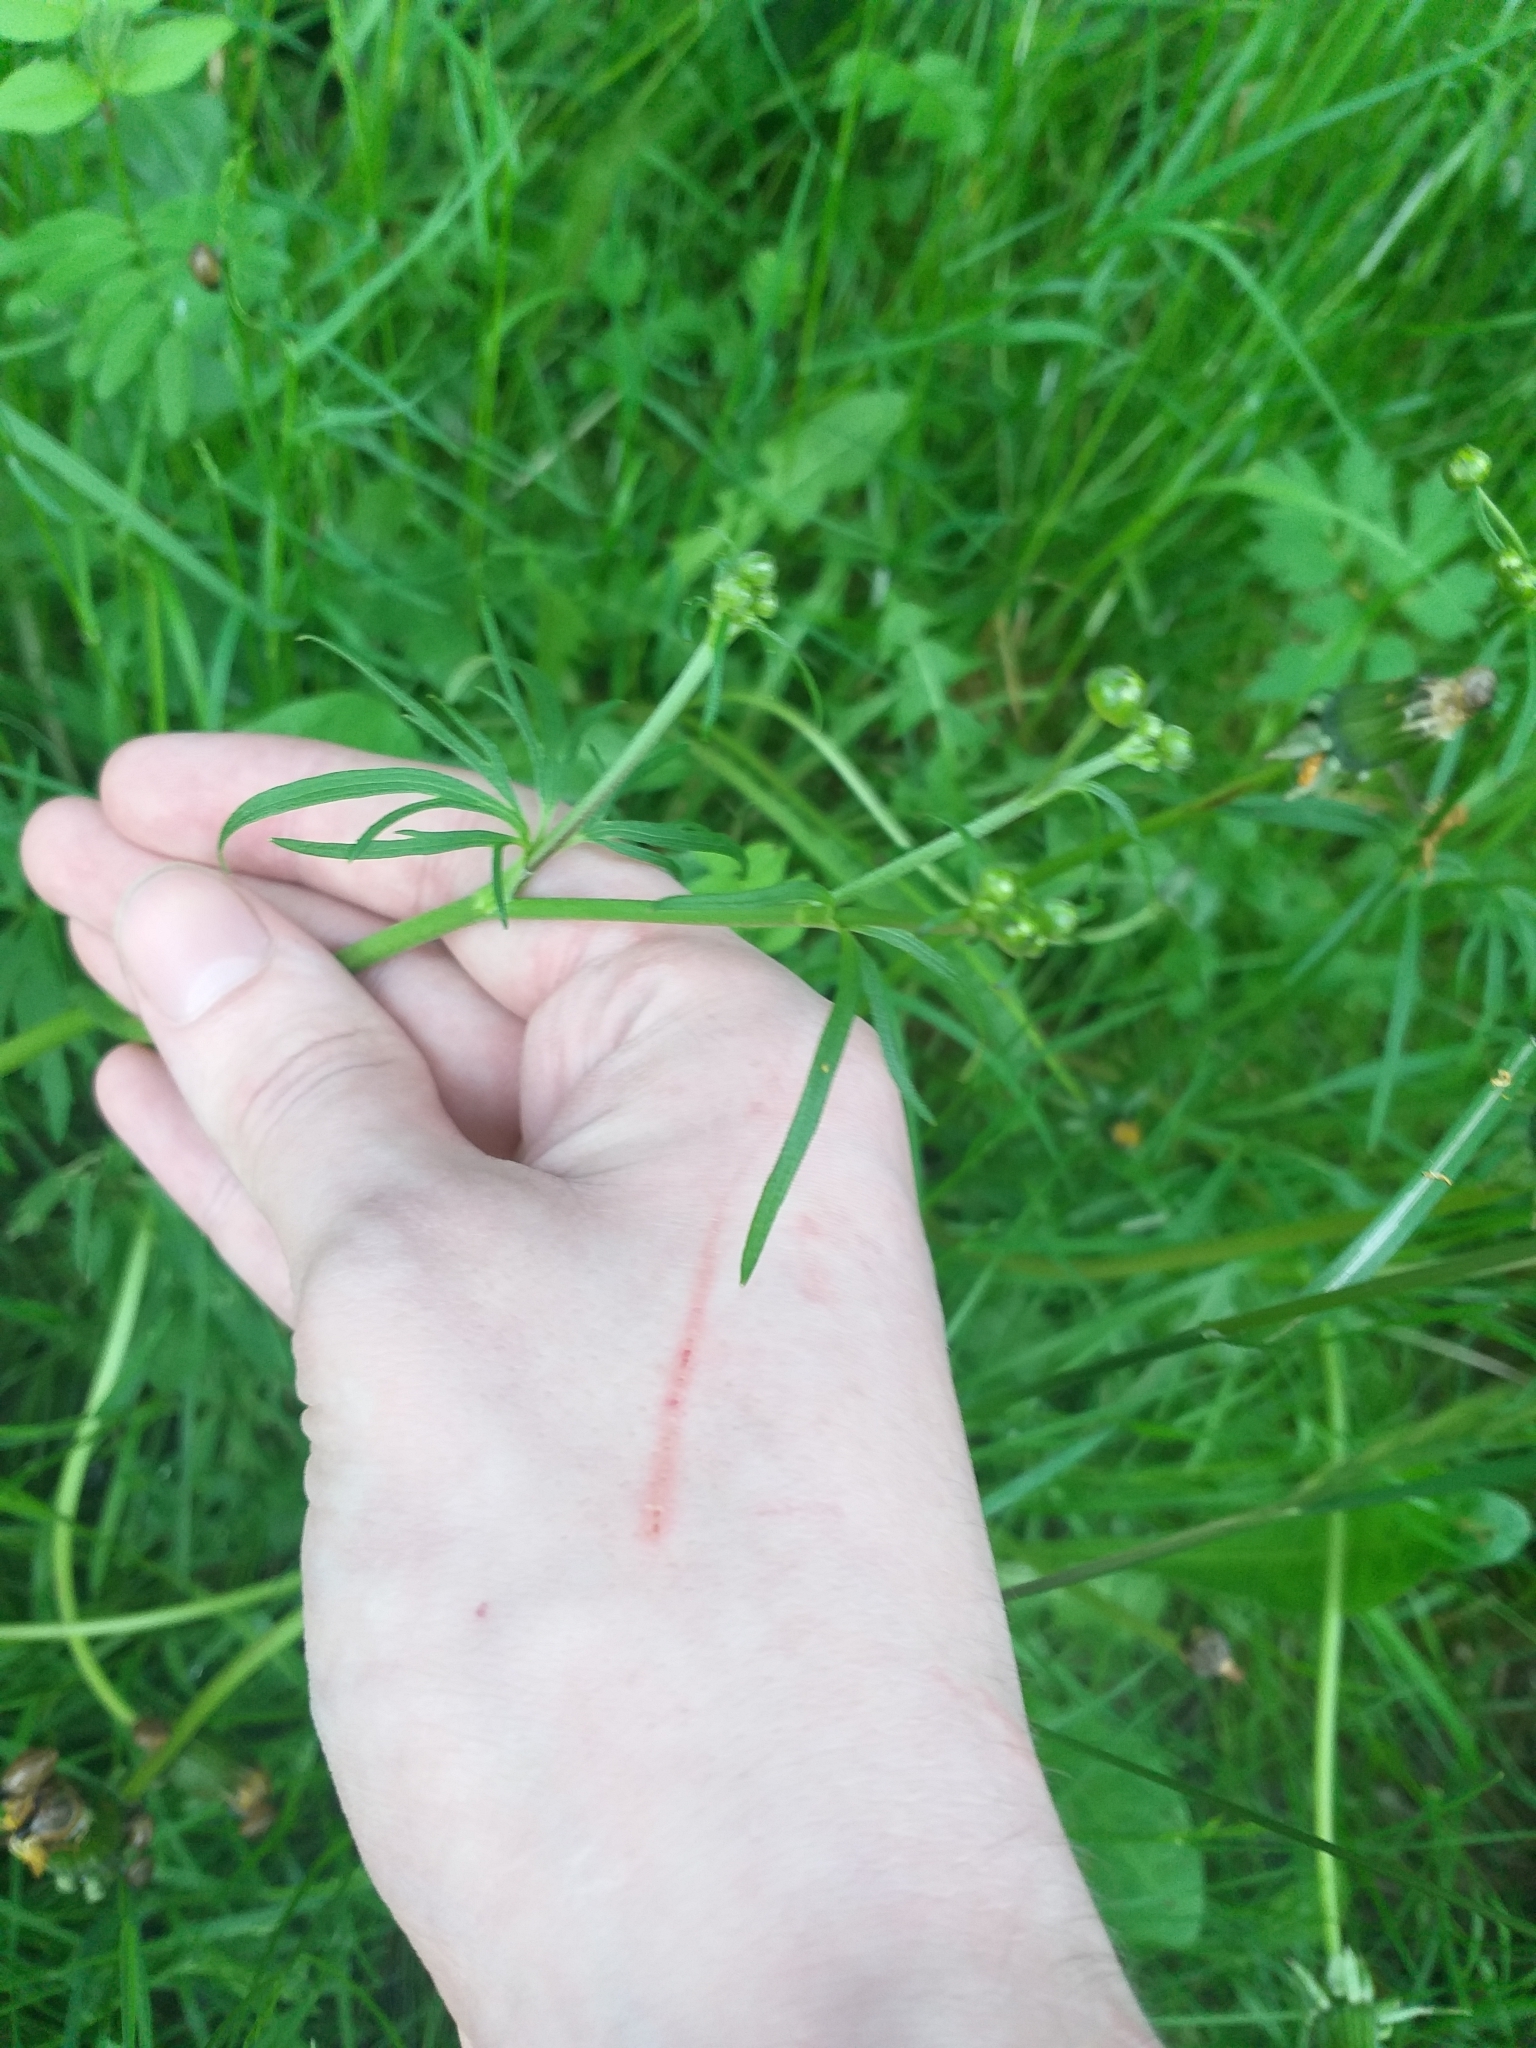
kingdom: Plantae
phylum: Tracheophyta
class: Magnoliopsida
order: Ranunculales
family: Ranunculaceae
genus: Ranunculus
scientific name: Ranunculus acris
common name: Meadow buttercup
